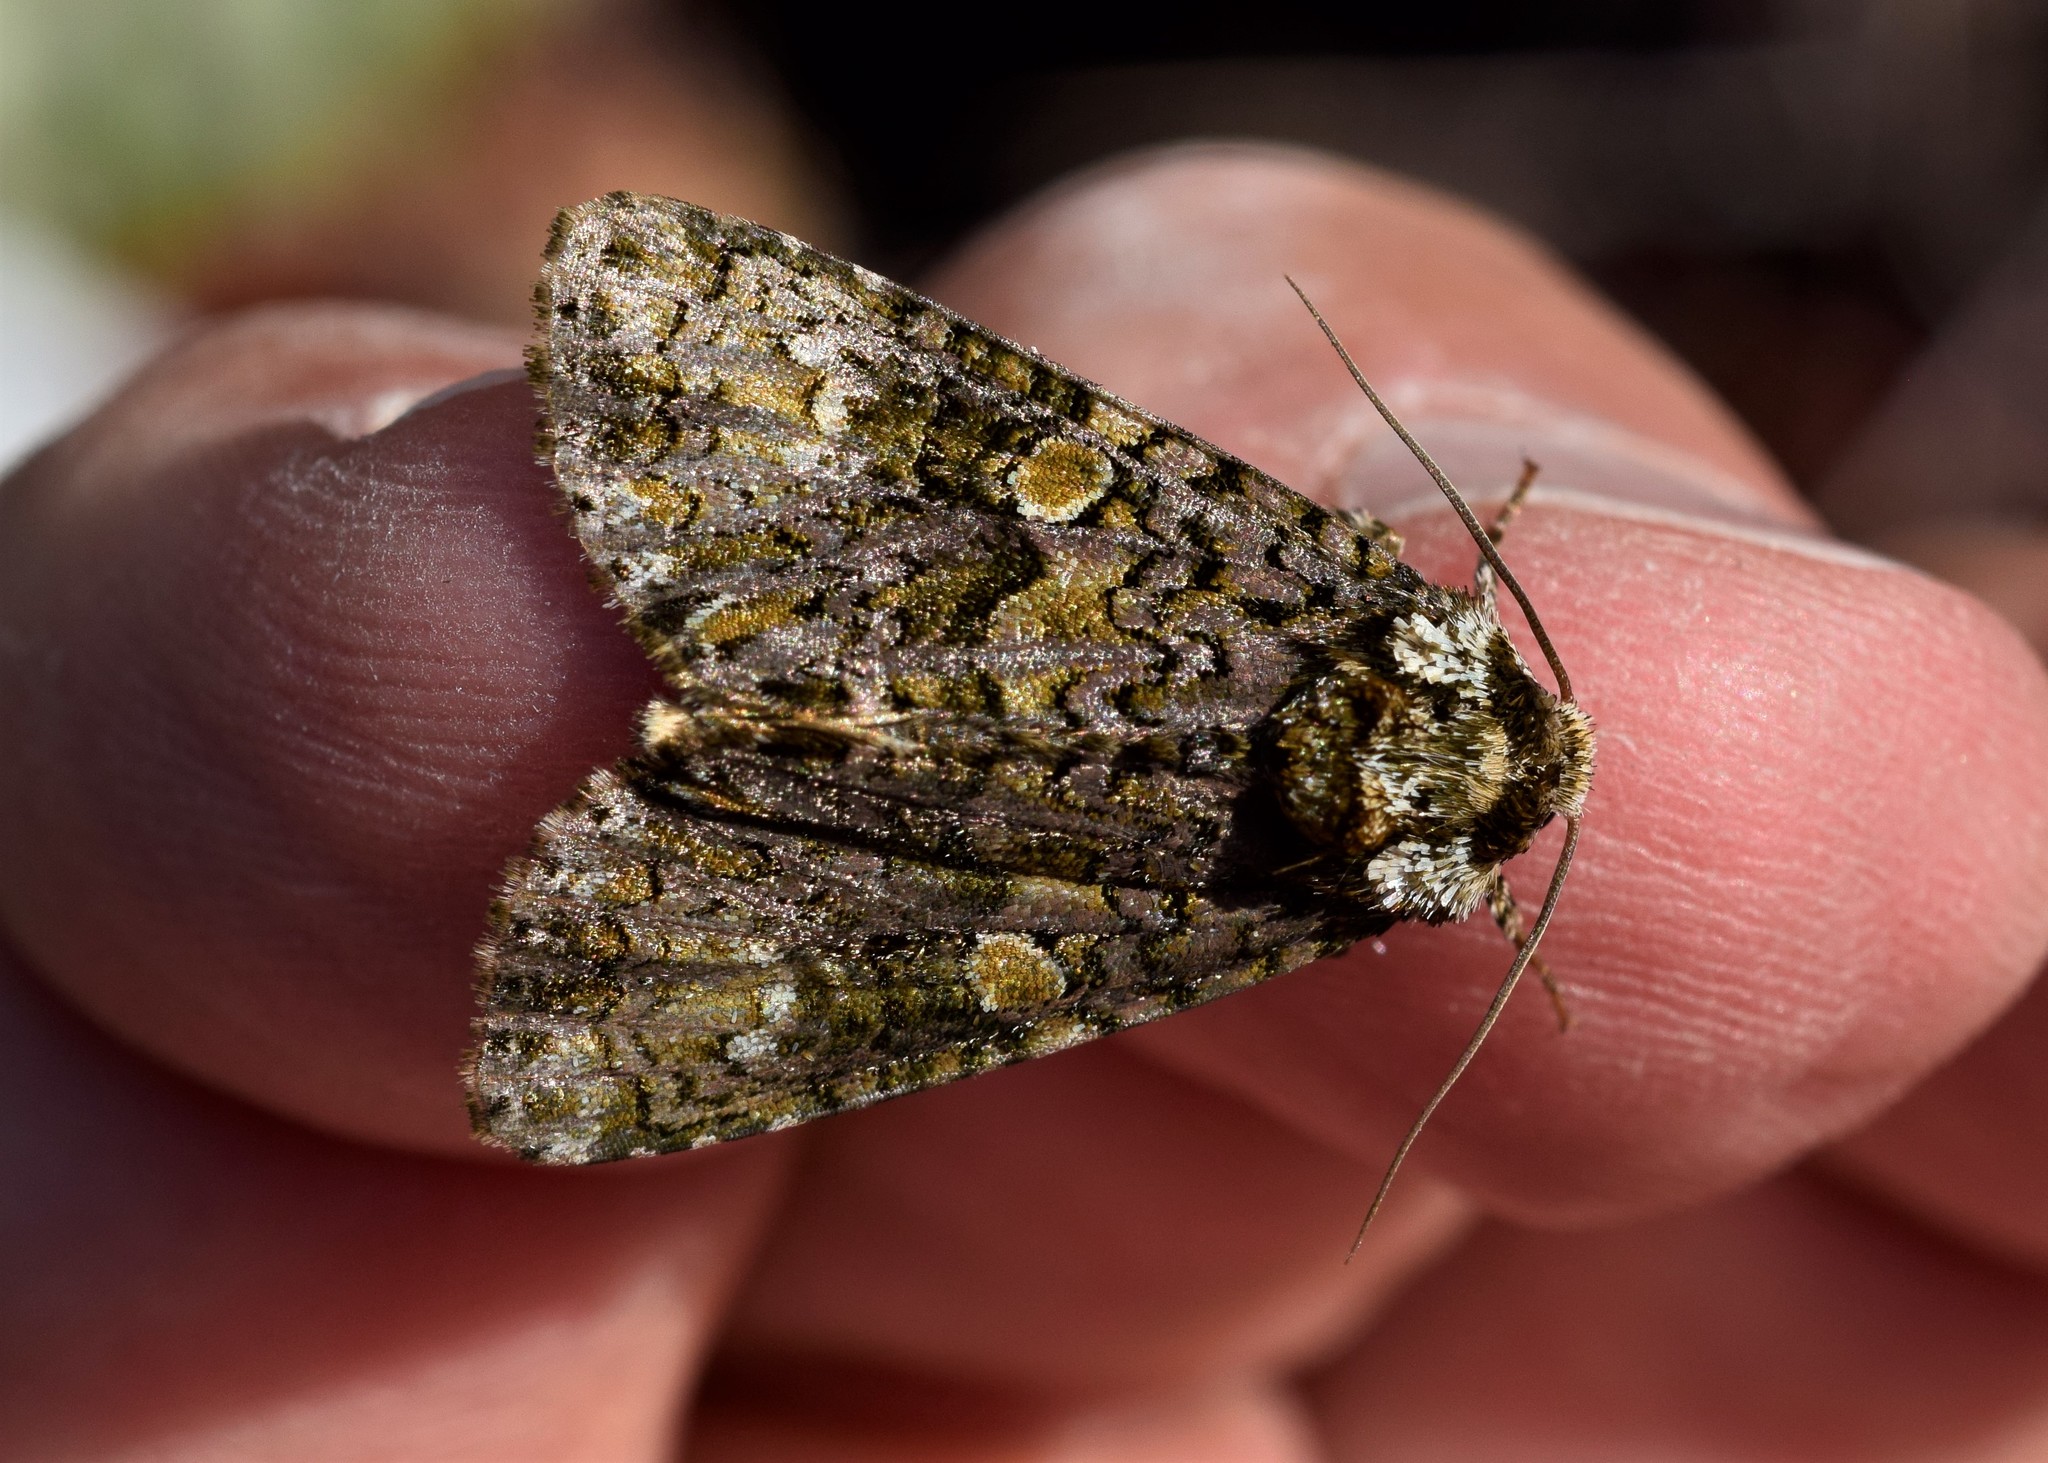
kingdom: Animalia
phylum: Arthropoda
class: Insecta
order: Lepidoptera
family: Noctuidae
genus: Craniophora
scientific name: Craniophora ligustri
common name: Coronet
